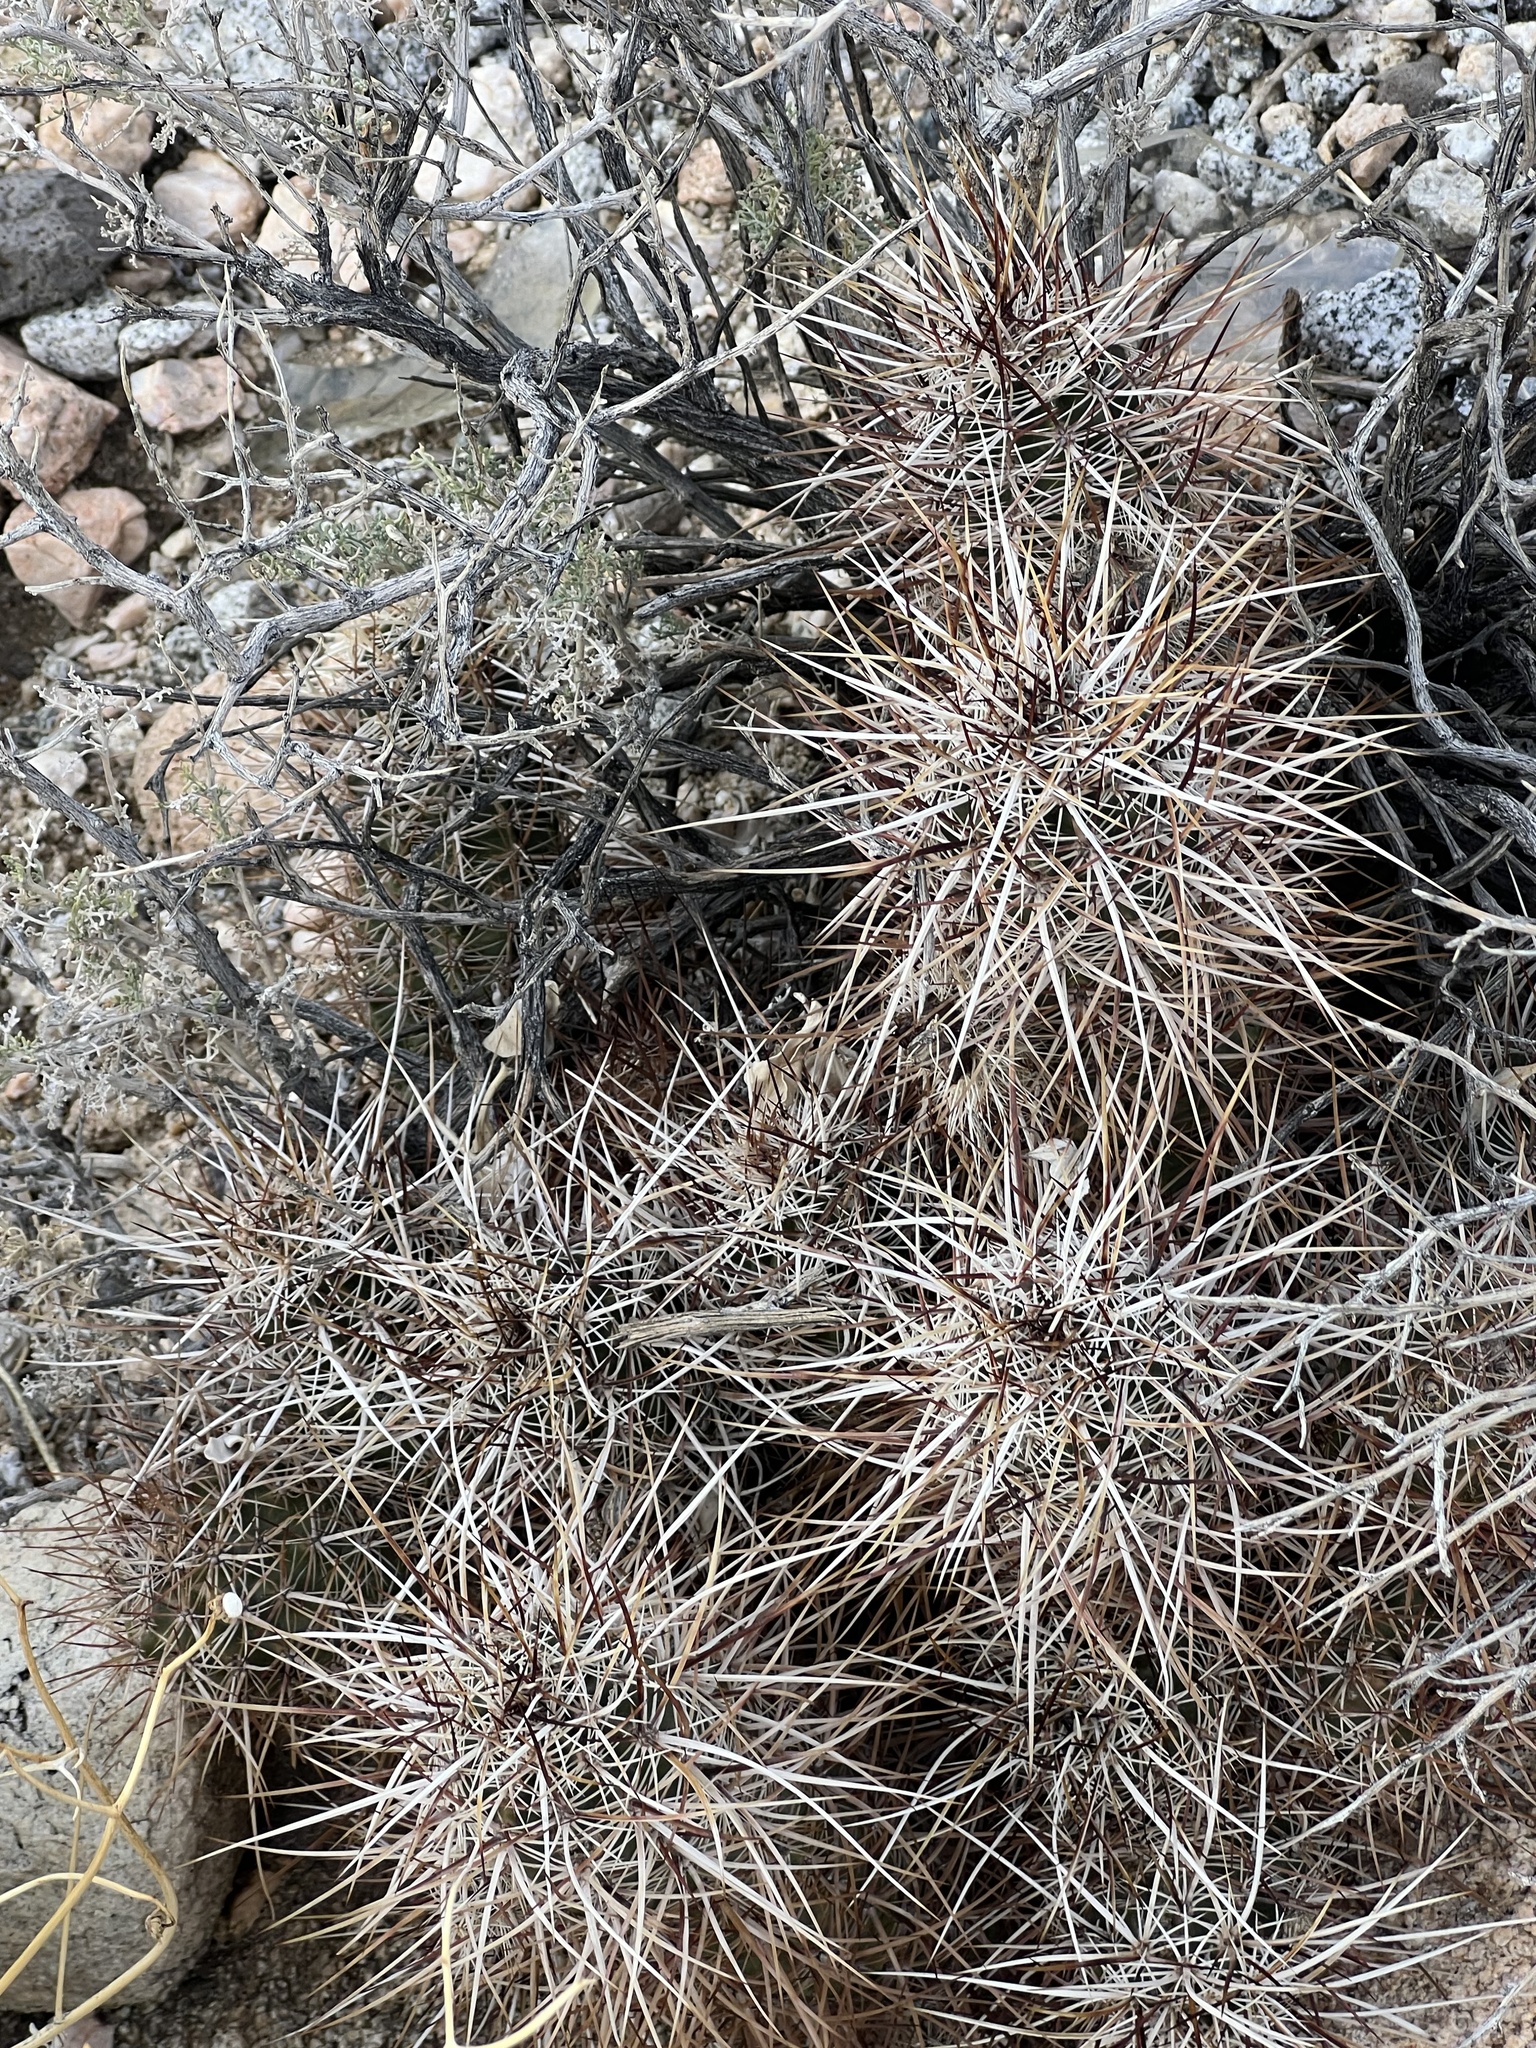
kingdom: Plantae
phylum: Tracheophyta
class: Magnoliopsida
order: Caryophyllales
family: Cactaceae
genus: Echinocereus
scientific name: Echinocereus engelmannii
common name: Engelmann's hedgehog cactus
